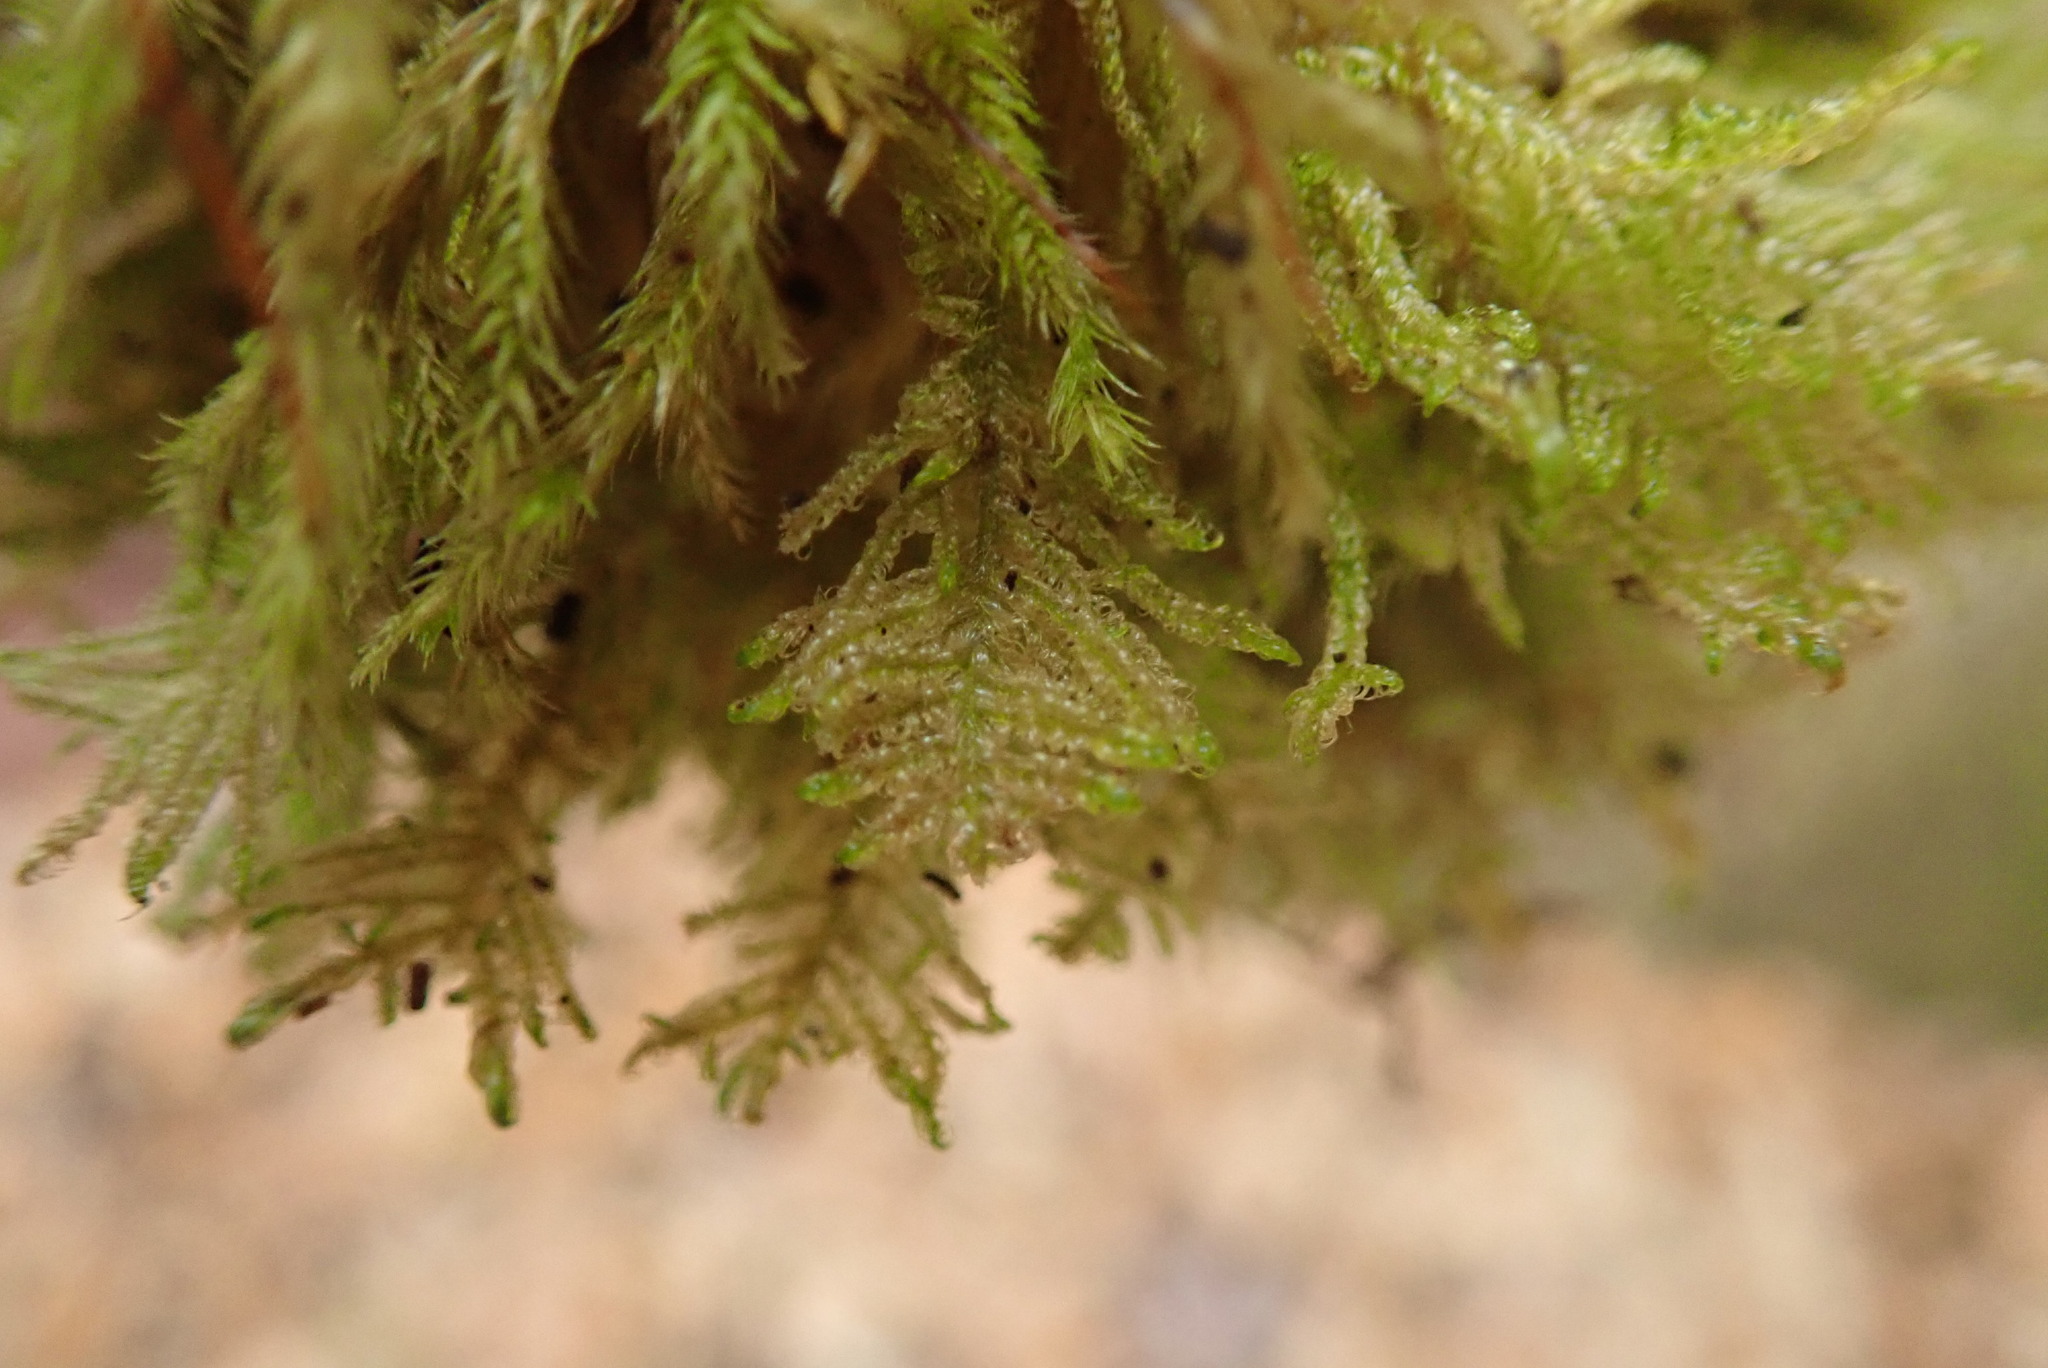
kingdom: Plantae
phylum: Bryophyta
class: Bryopsida
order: Hypnales
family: Stereodontaceae
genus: Stereodon
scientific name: Stereodon subimponens
